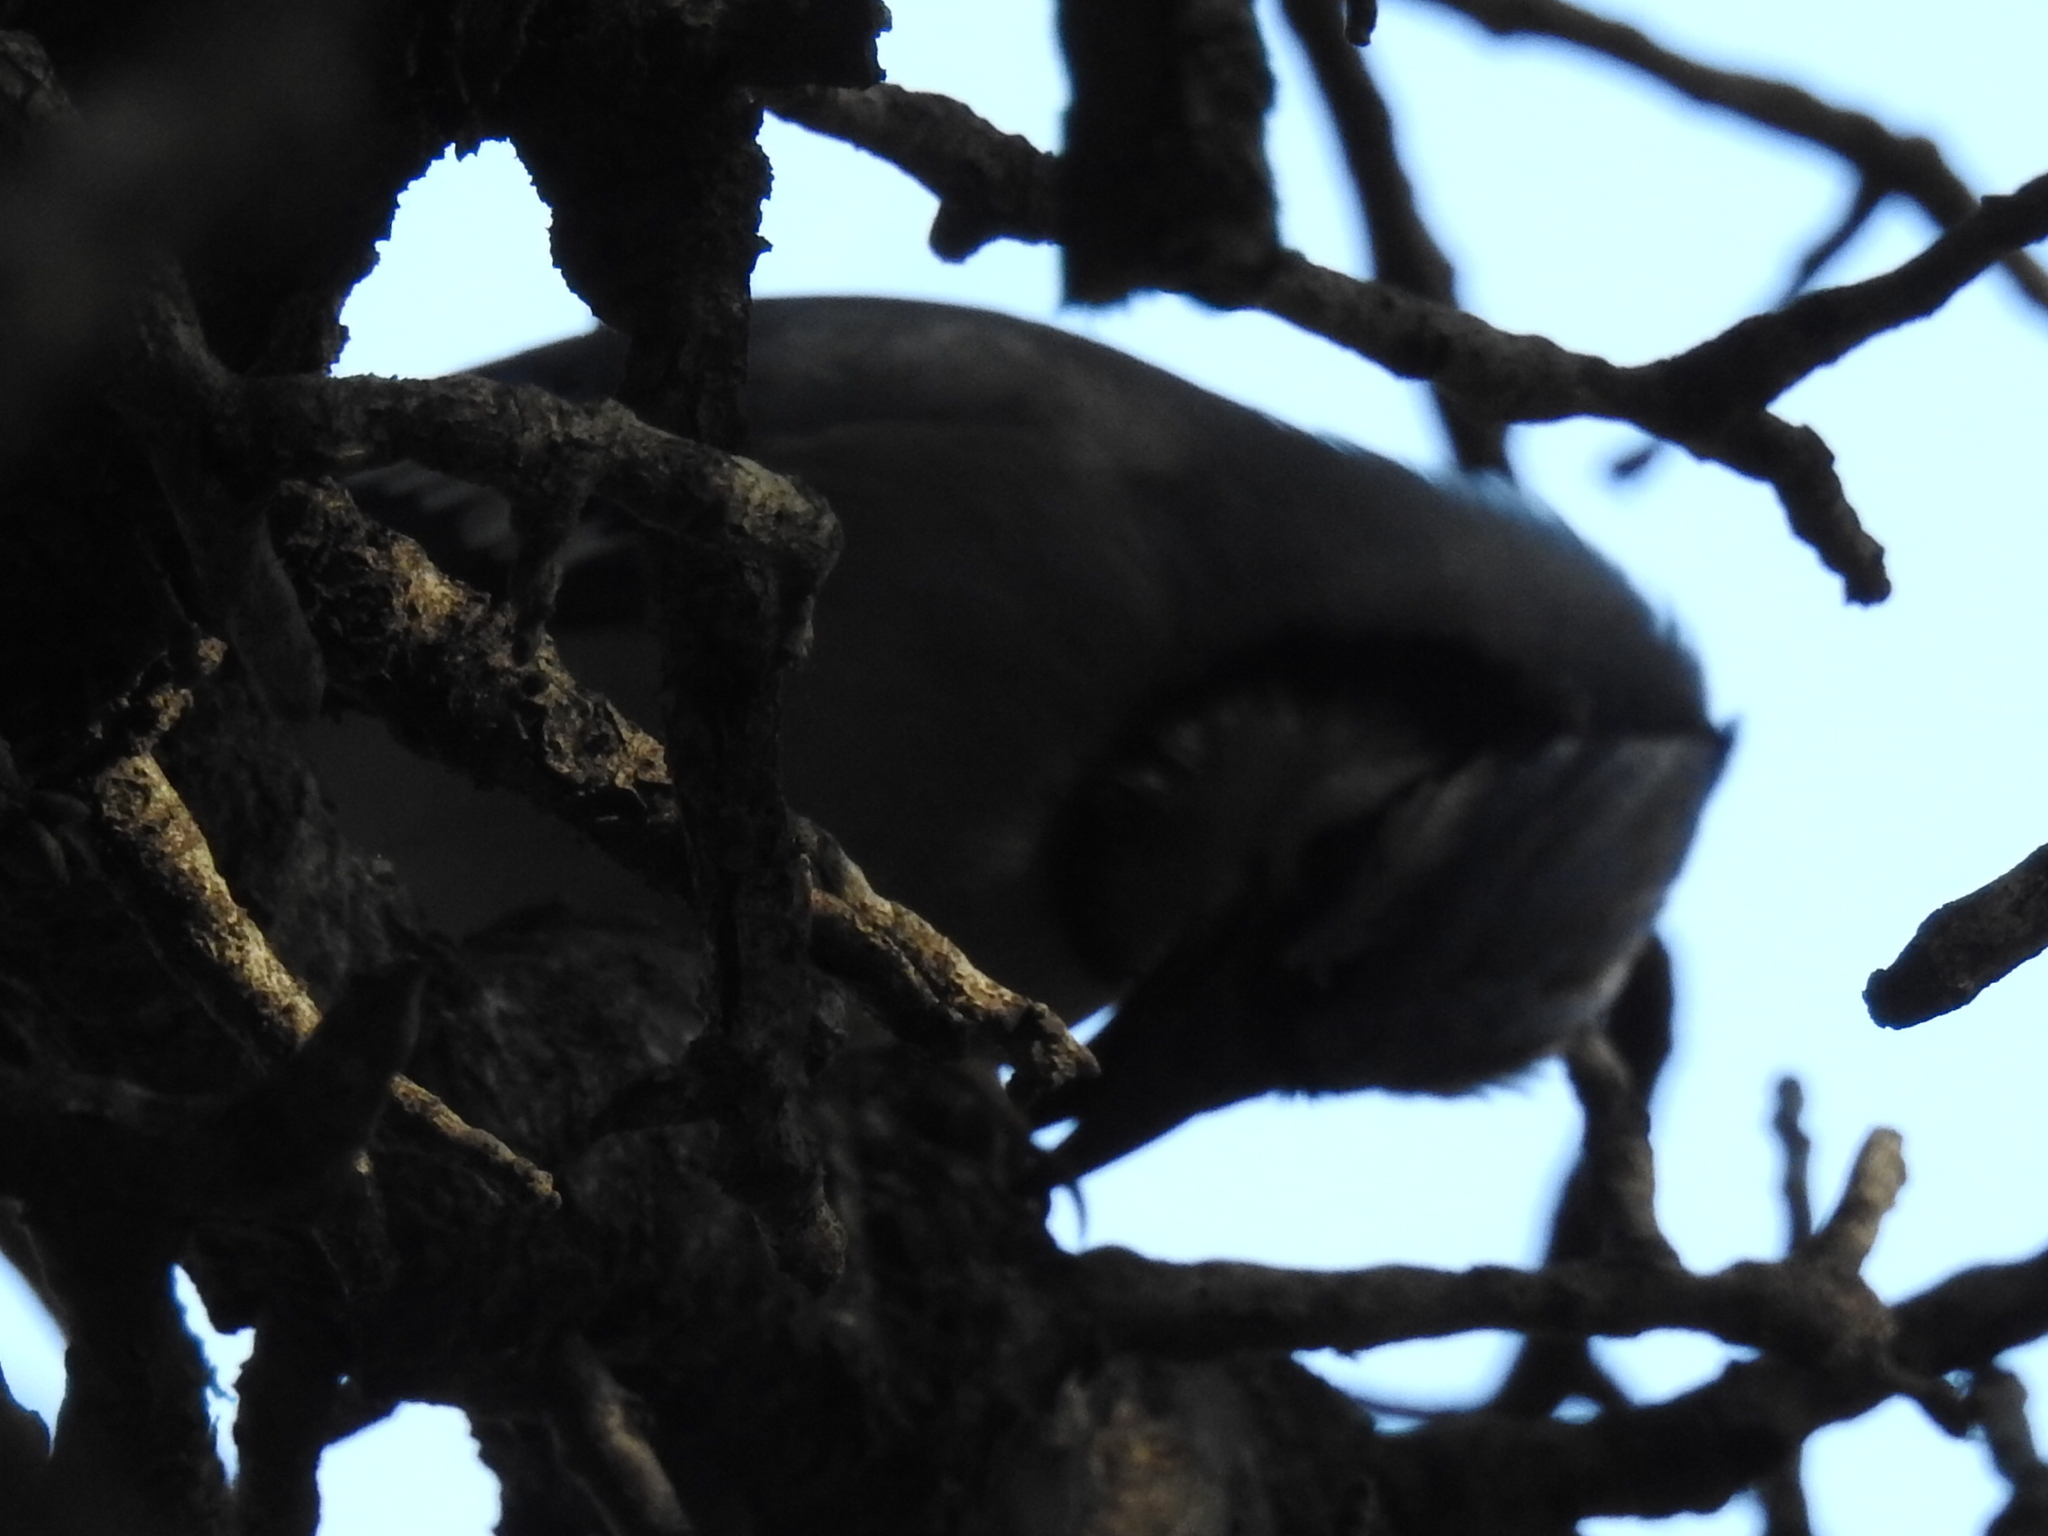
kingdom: Animalia
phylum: Chordata
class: Aves
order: Passeriformes
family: Corvidae
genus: Cyanocitta
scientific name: Cyanocitta cristata
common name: Blue jay
